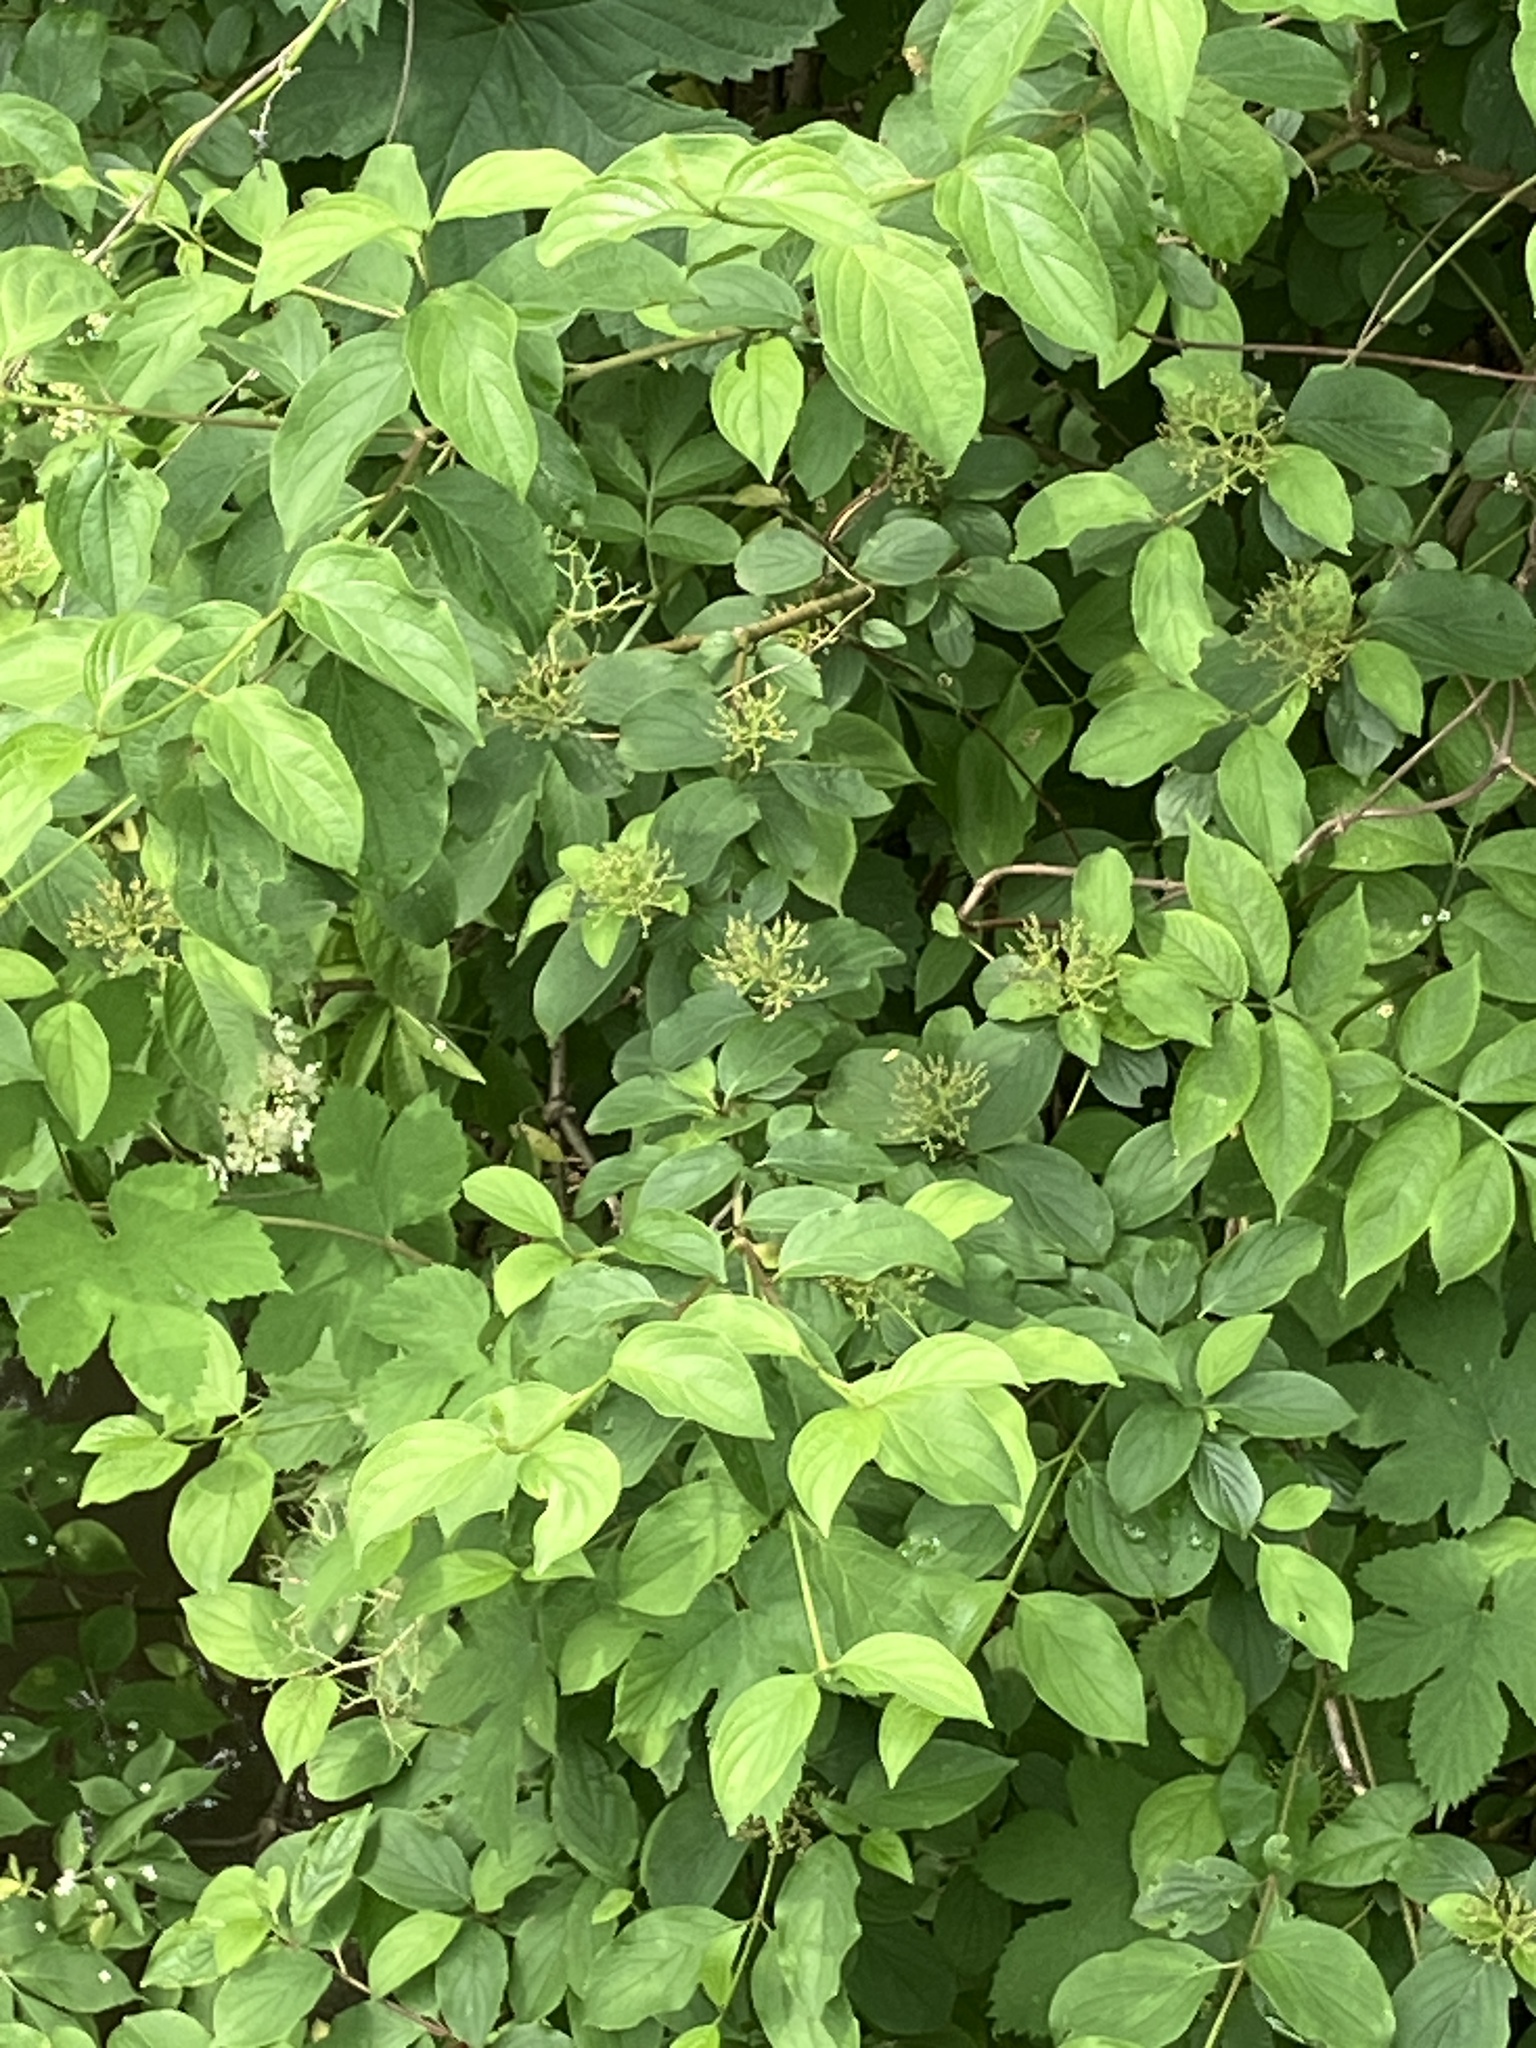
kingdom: Plantae
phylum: Tracheophyta
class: Magnoliopsida
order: Cornales
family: Cornaceae
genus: Cornus
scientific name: Cornus sanguinea
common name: Dogwood
